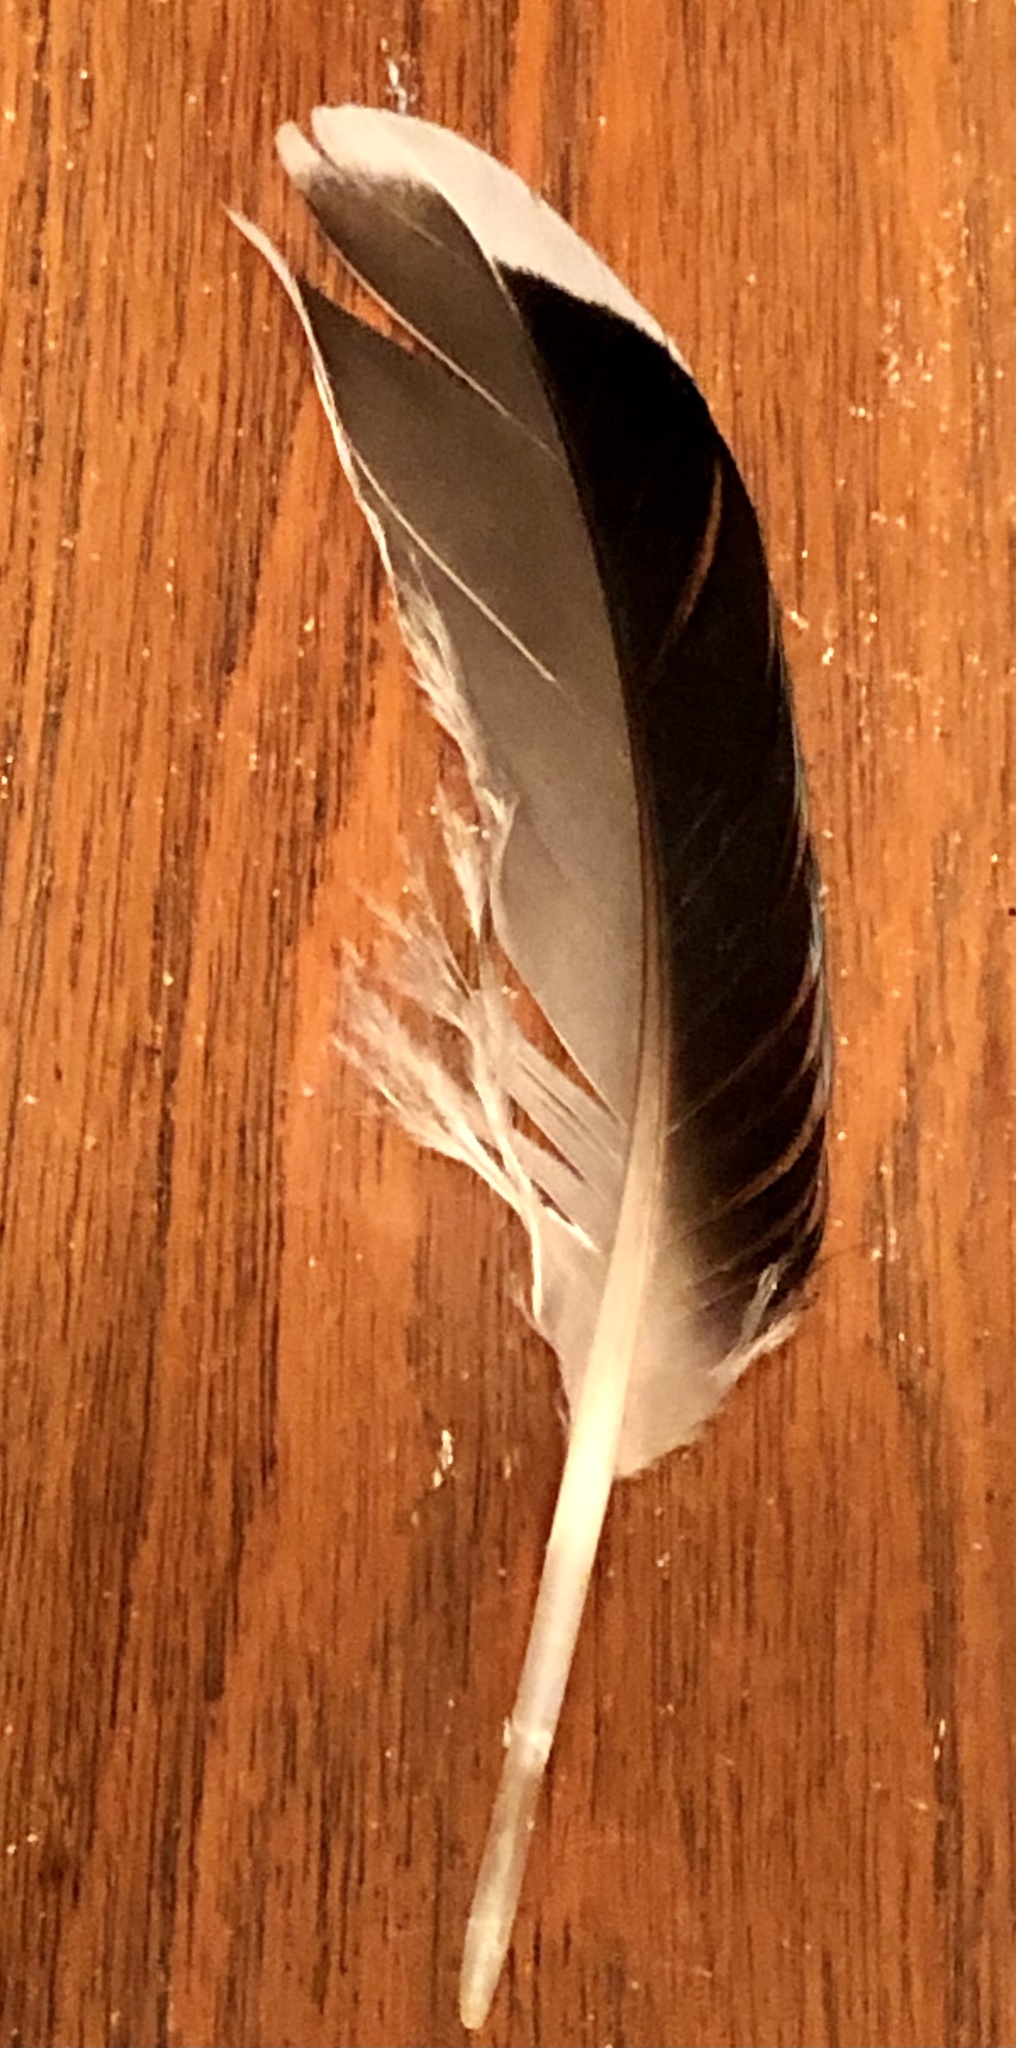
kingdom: Animalia
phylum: Chordata
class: Aves
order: Anseriformes
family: Anatidae
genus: Anas
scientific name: Anas platyrhynchos
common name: Mallard
